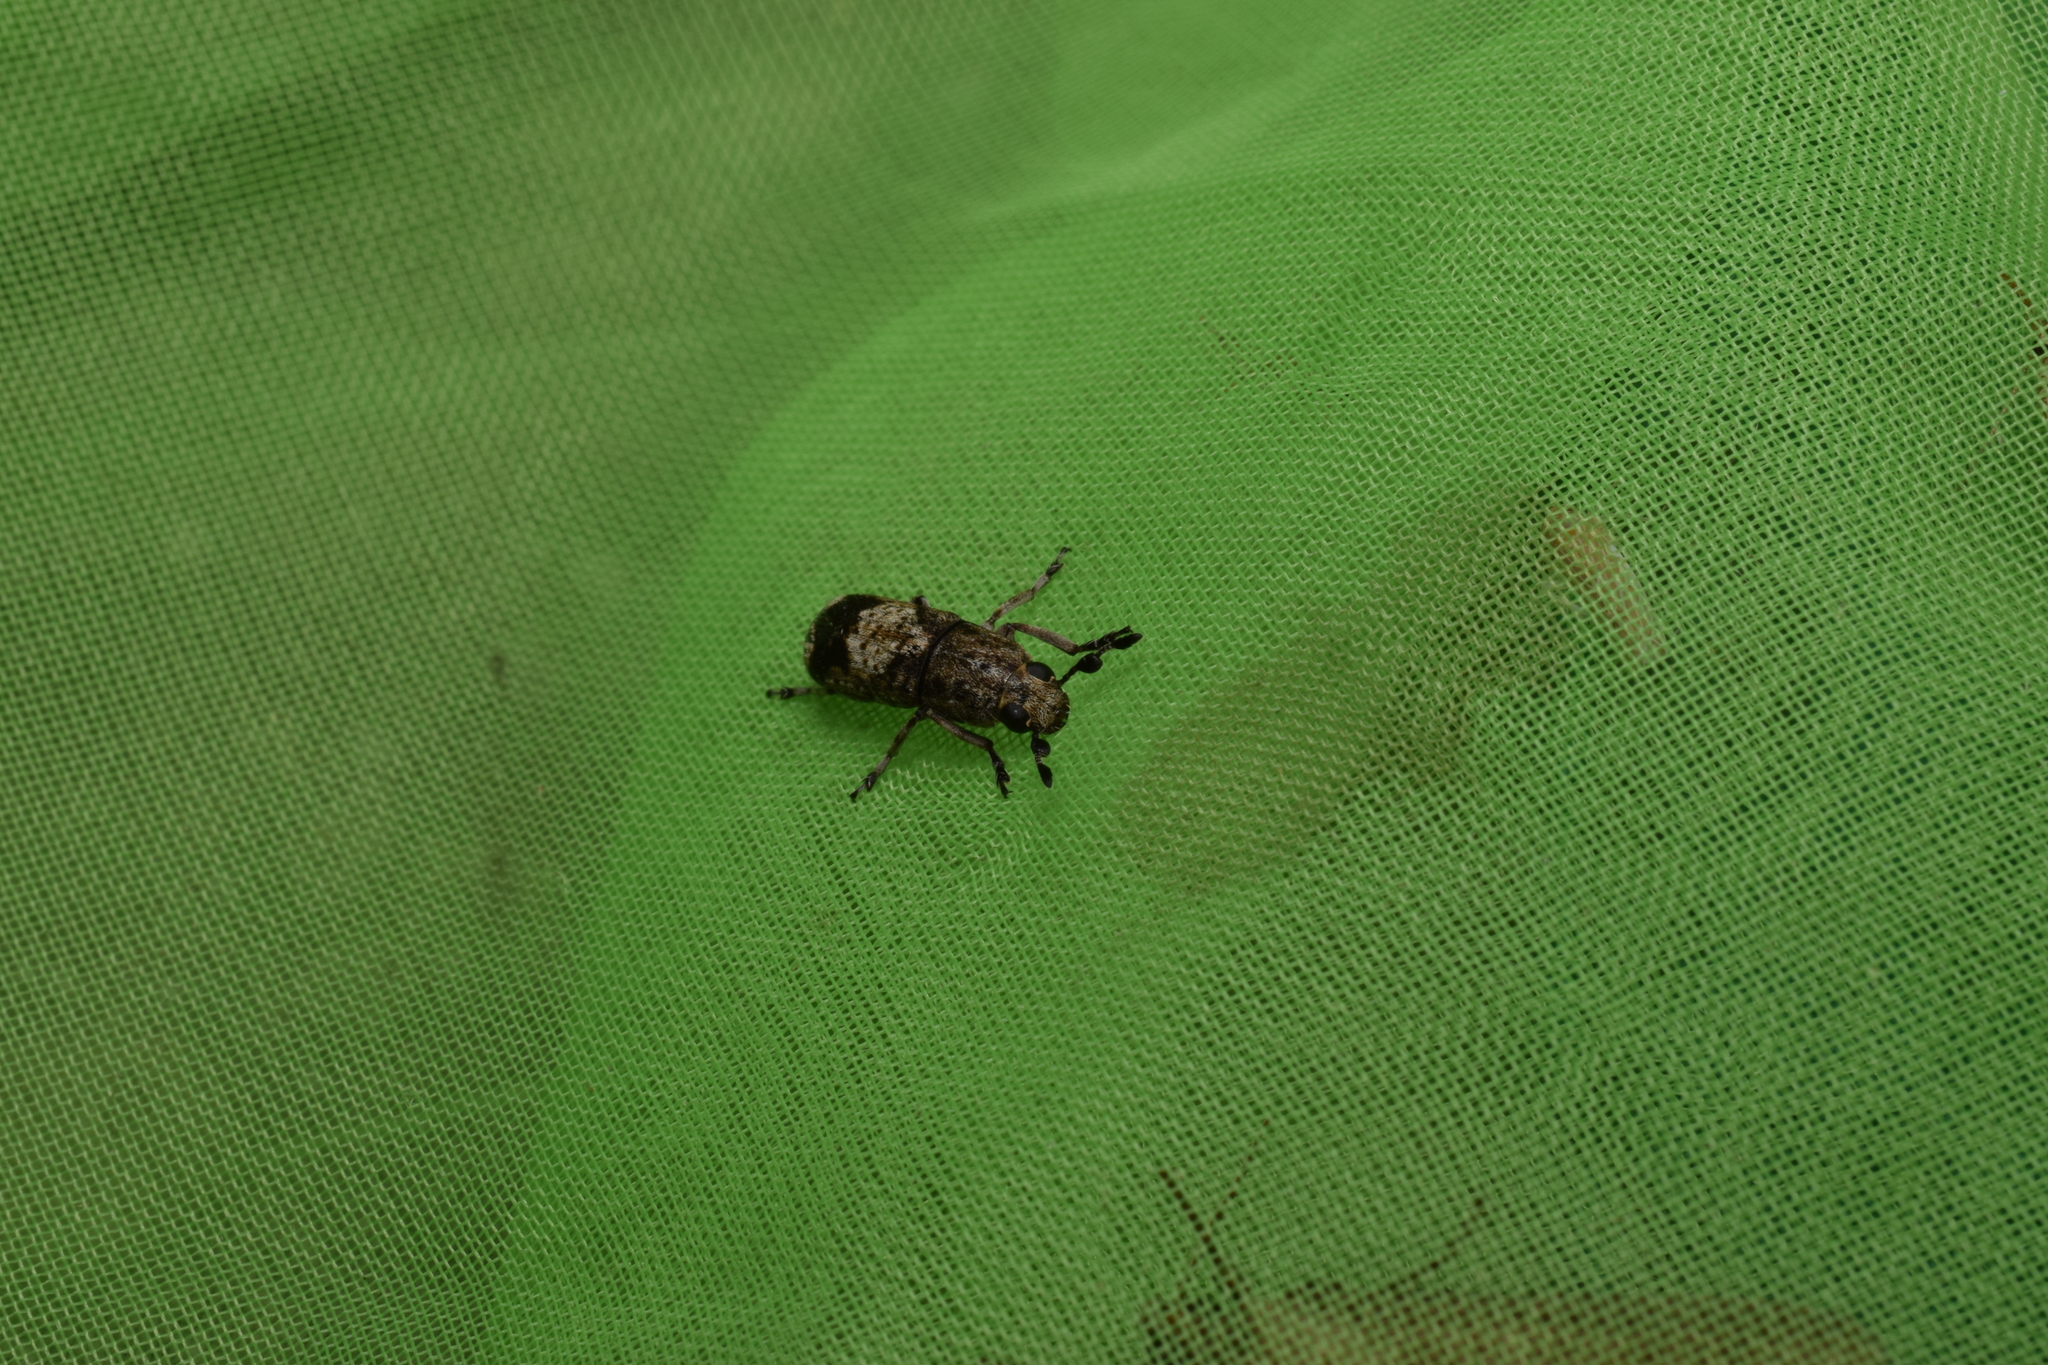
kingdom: Animalia
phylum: Arthropoda
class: Insecta
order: Coleoptera
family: Anthribidae
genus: Ozotomerus
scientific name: Ozotomerus japonicus
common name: Old world fungus weevil
